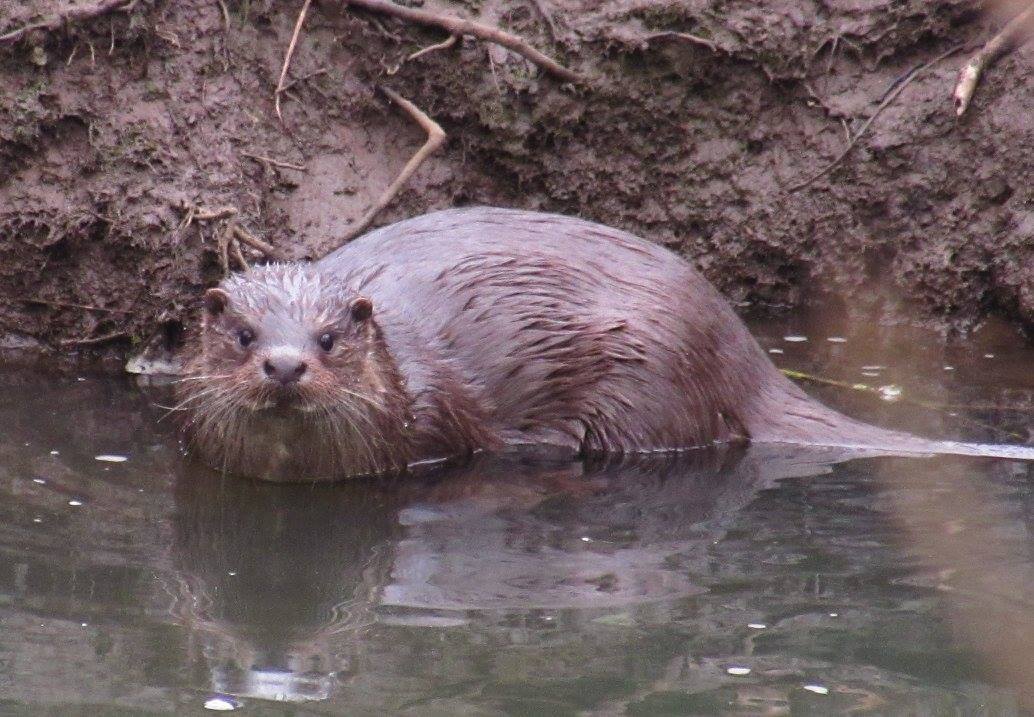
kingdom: Animalia
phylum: Chordata
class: Mammalia
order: Carnivora
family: Mustelidae
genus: Lutra
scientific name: Lutra lutra
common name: European otter
